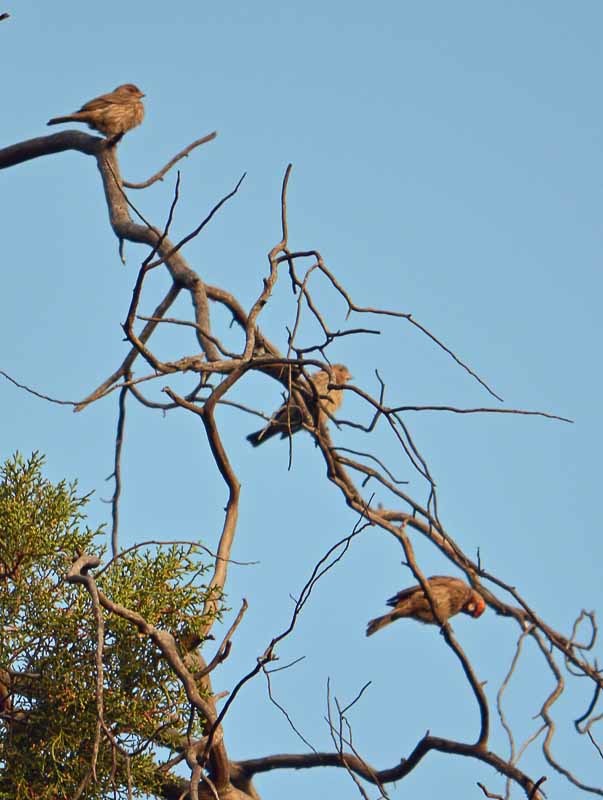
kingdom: Animalia
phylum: Chordata
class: Aves
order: Passeriformes
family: Fringillidae
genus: Haemorhous
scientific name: Haemorhous mexicanus
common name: House finch
